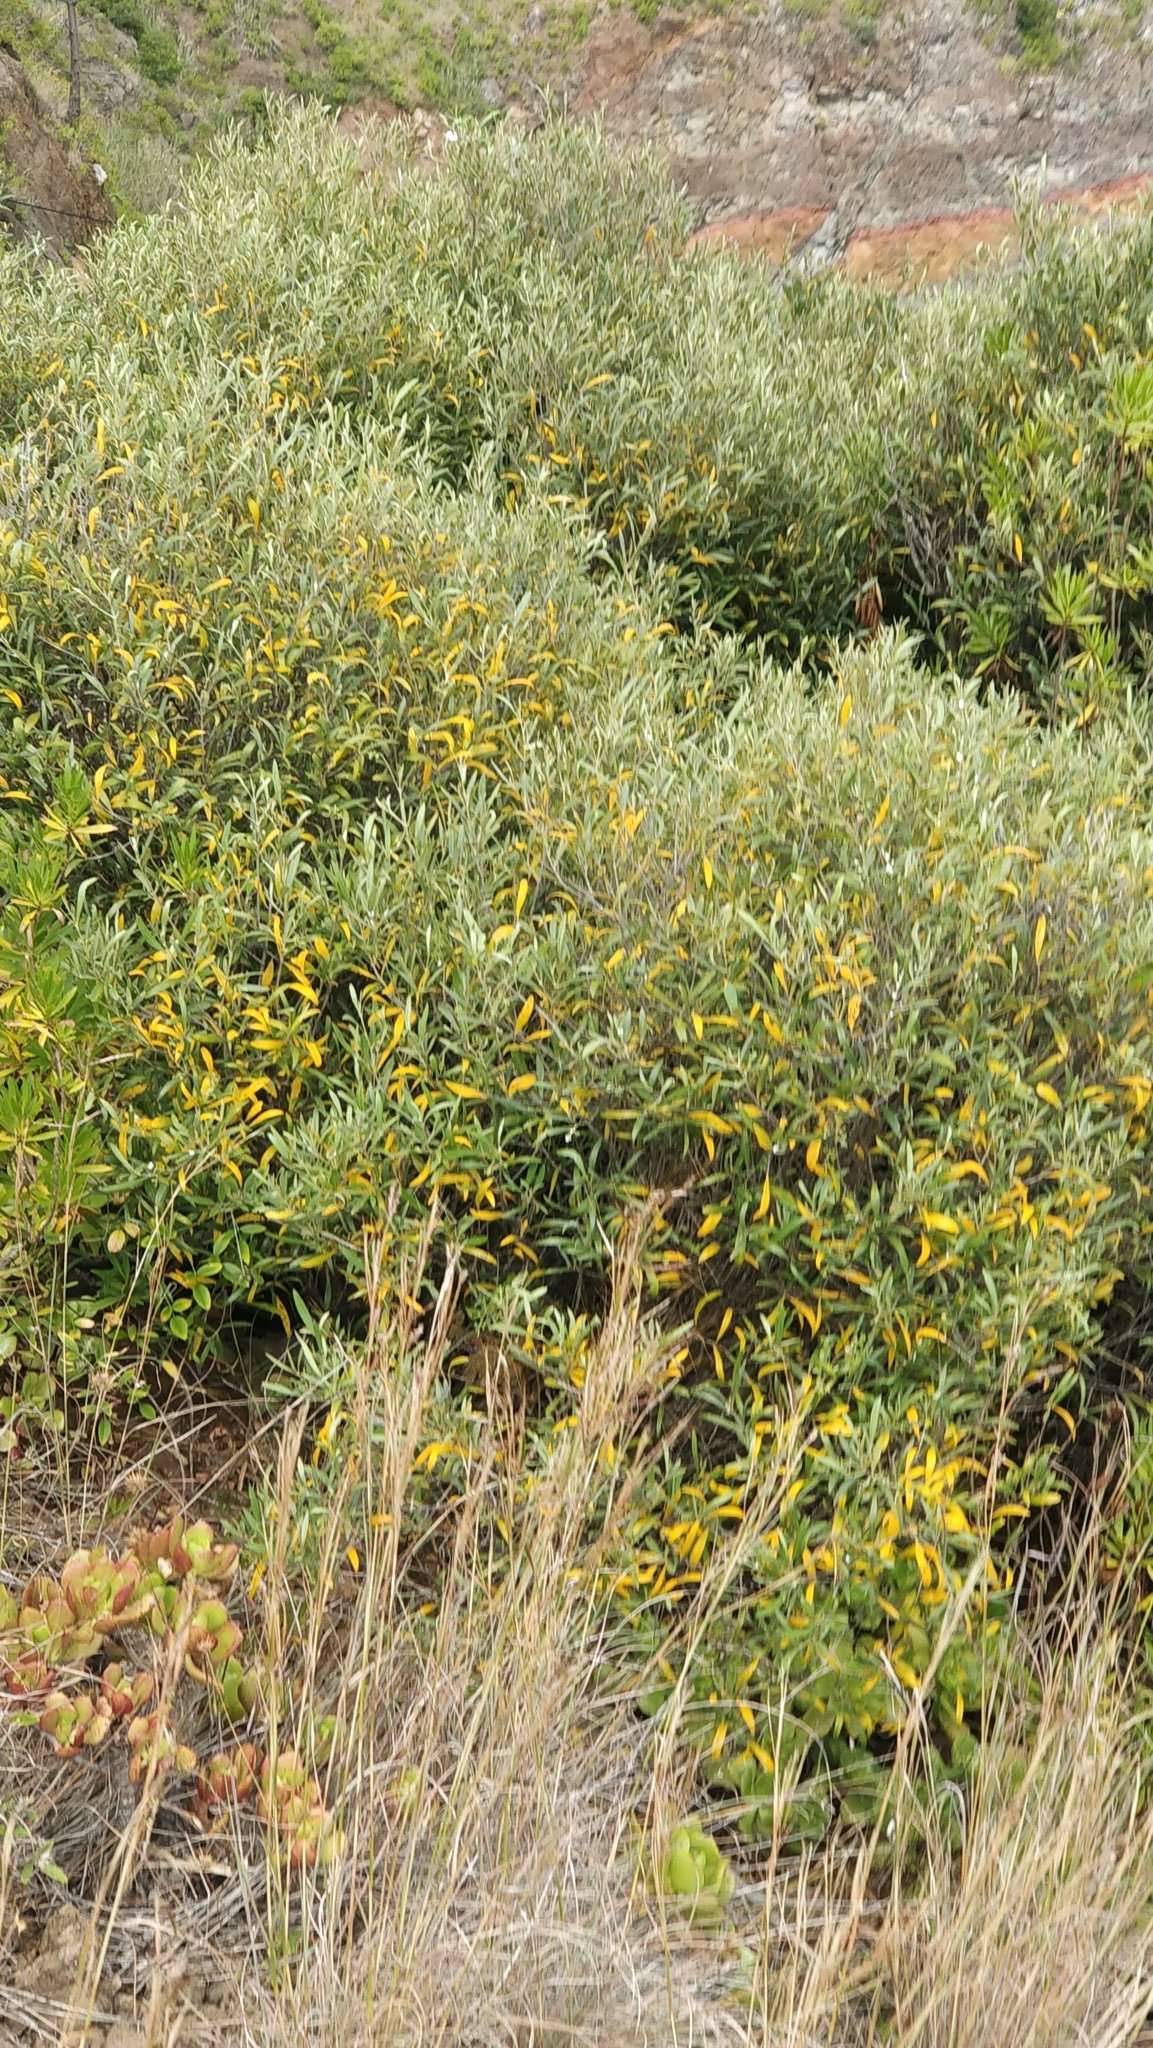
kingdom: Plantae
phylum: Tracheophyta
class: Magnoliopsida
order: Lamiales
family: Oleaceae
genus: Olea
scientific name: Olea europaea
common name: Olive
